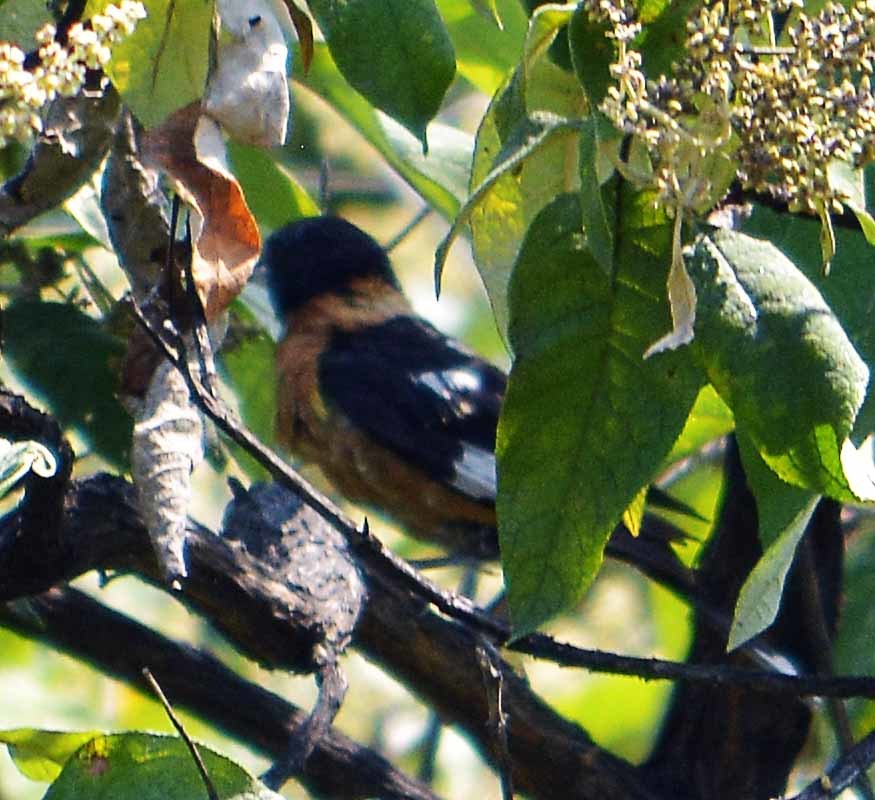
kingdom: Animalia
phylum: Chordata
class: Aves
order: Passeriformes
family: Cardinalidae
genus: Pheucticus
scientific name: Pheucticus melanocephalus
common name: Black-headed grosbeak
